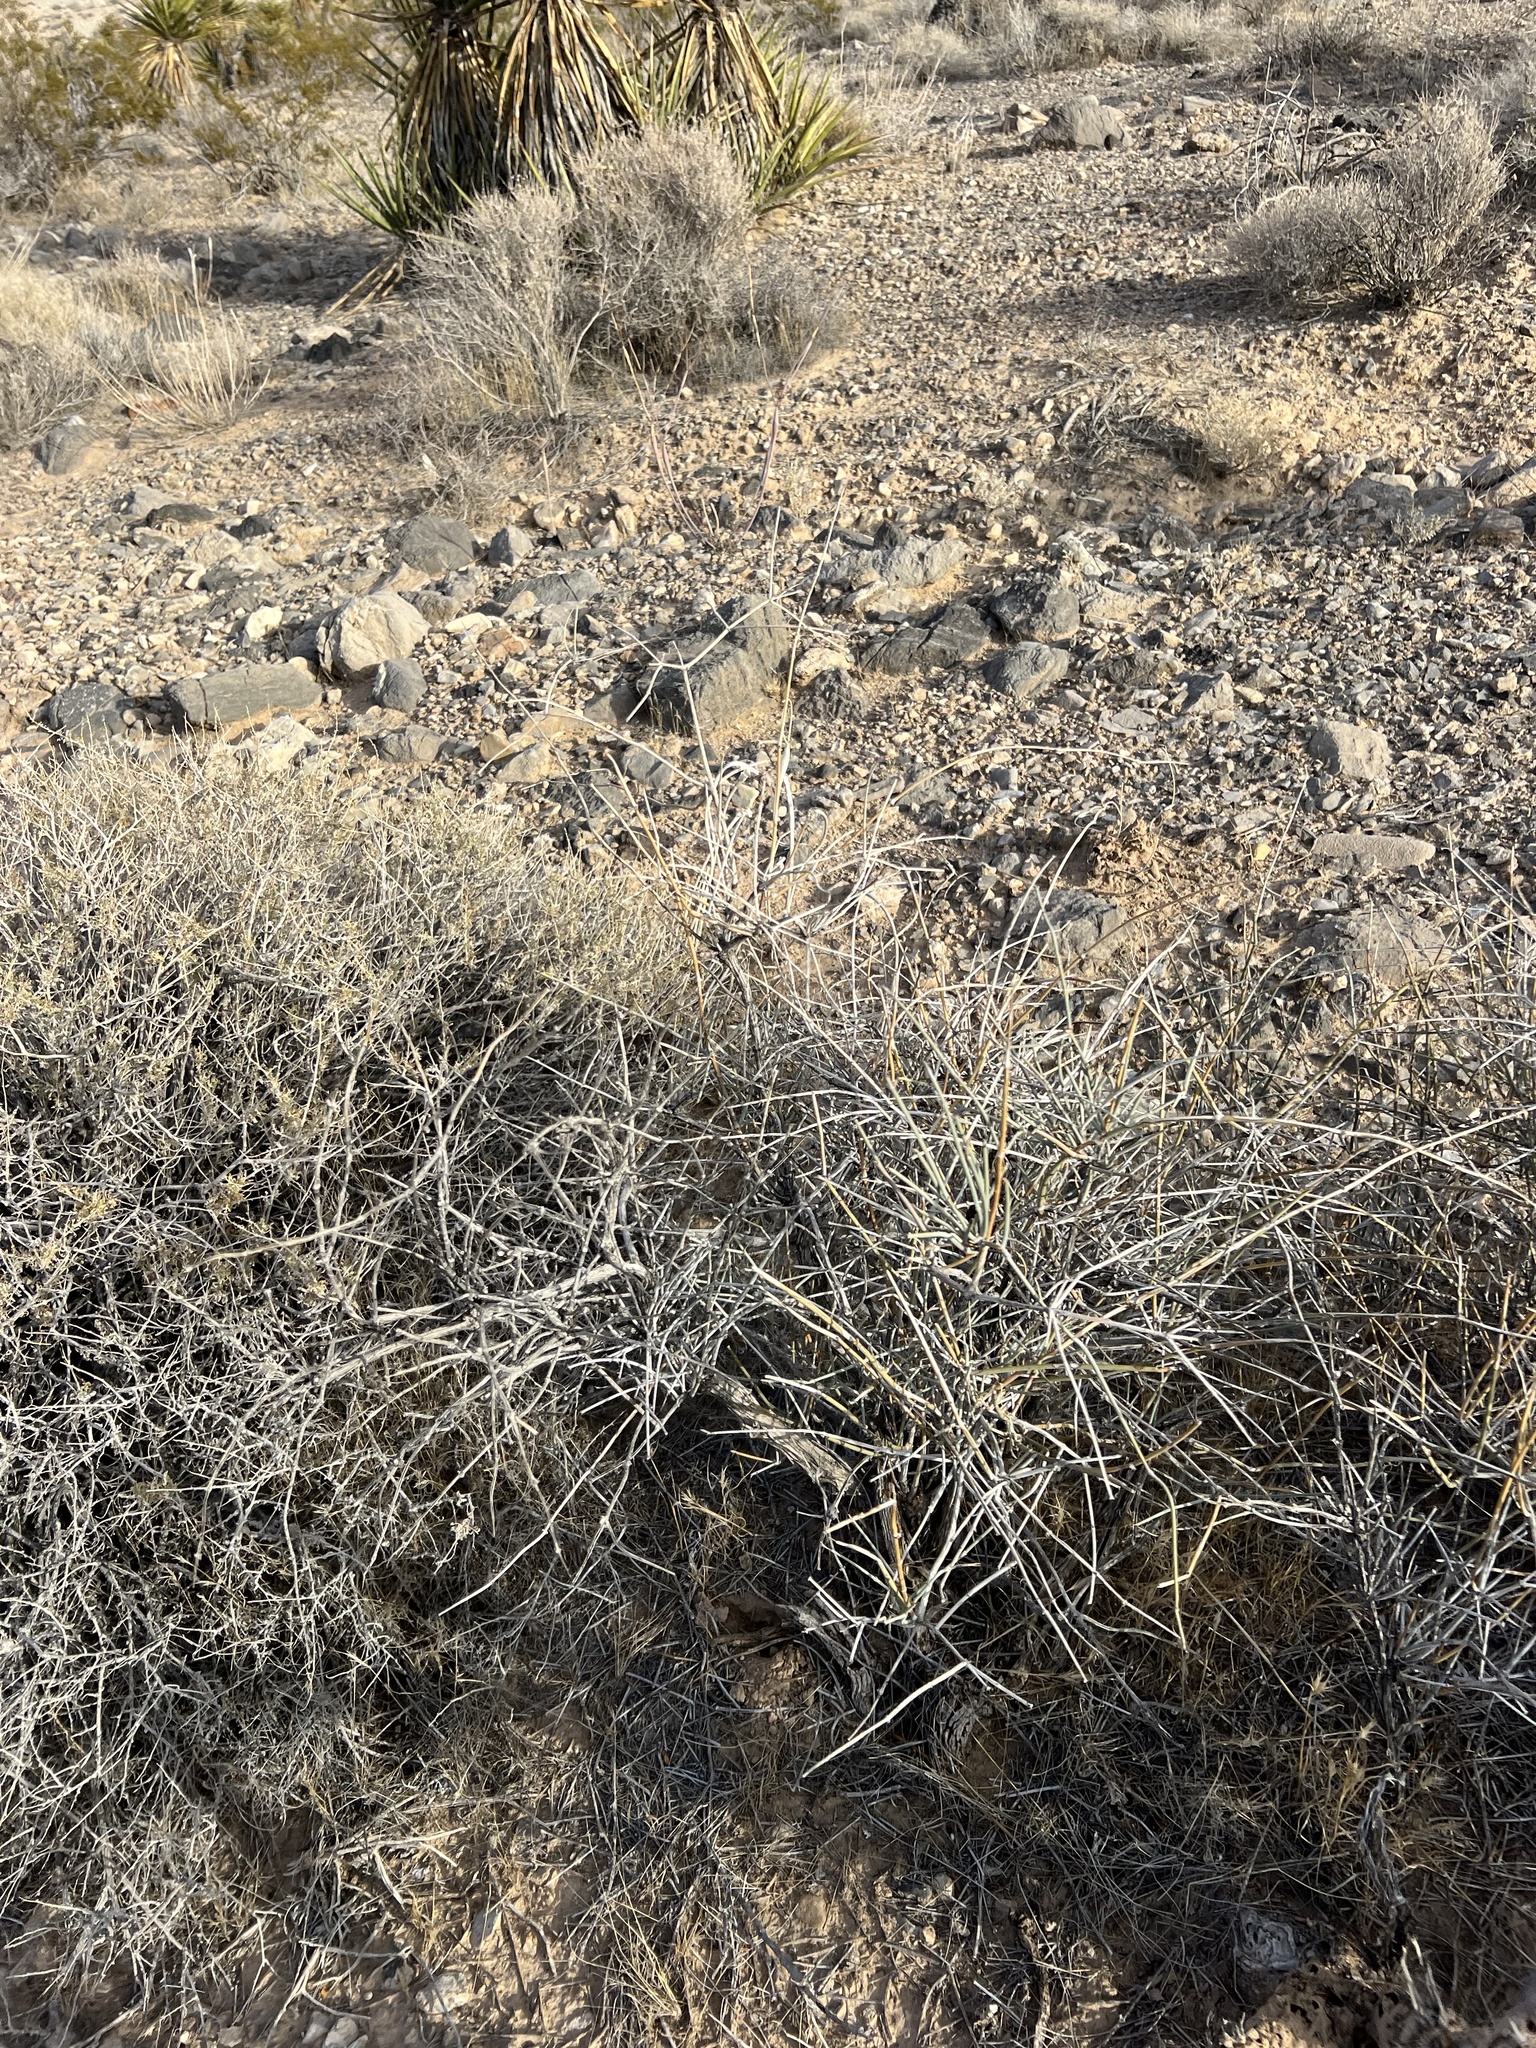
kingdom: Plantae
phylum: Tracheophyta
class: Gnetopsida
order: Ephedrales
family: Ephedraceae
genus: Ephedra
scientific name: Ephedra nevadensis
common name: Gray ephedra
